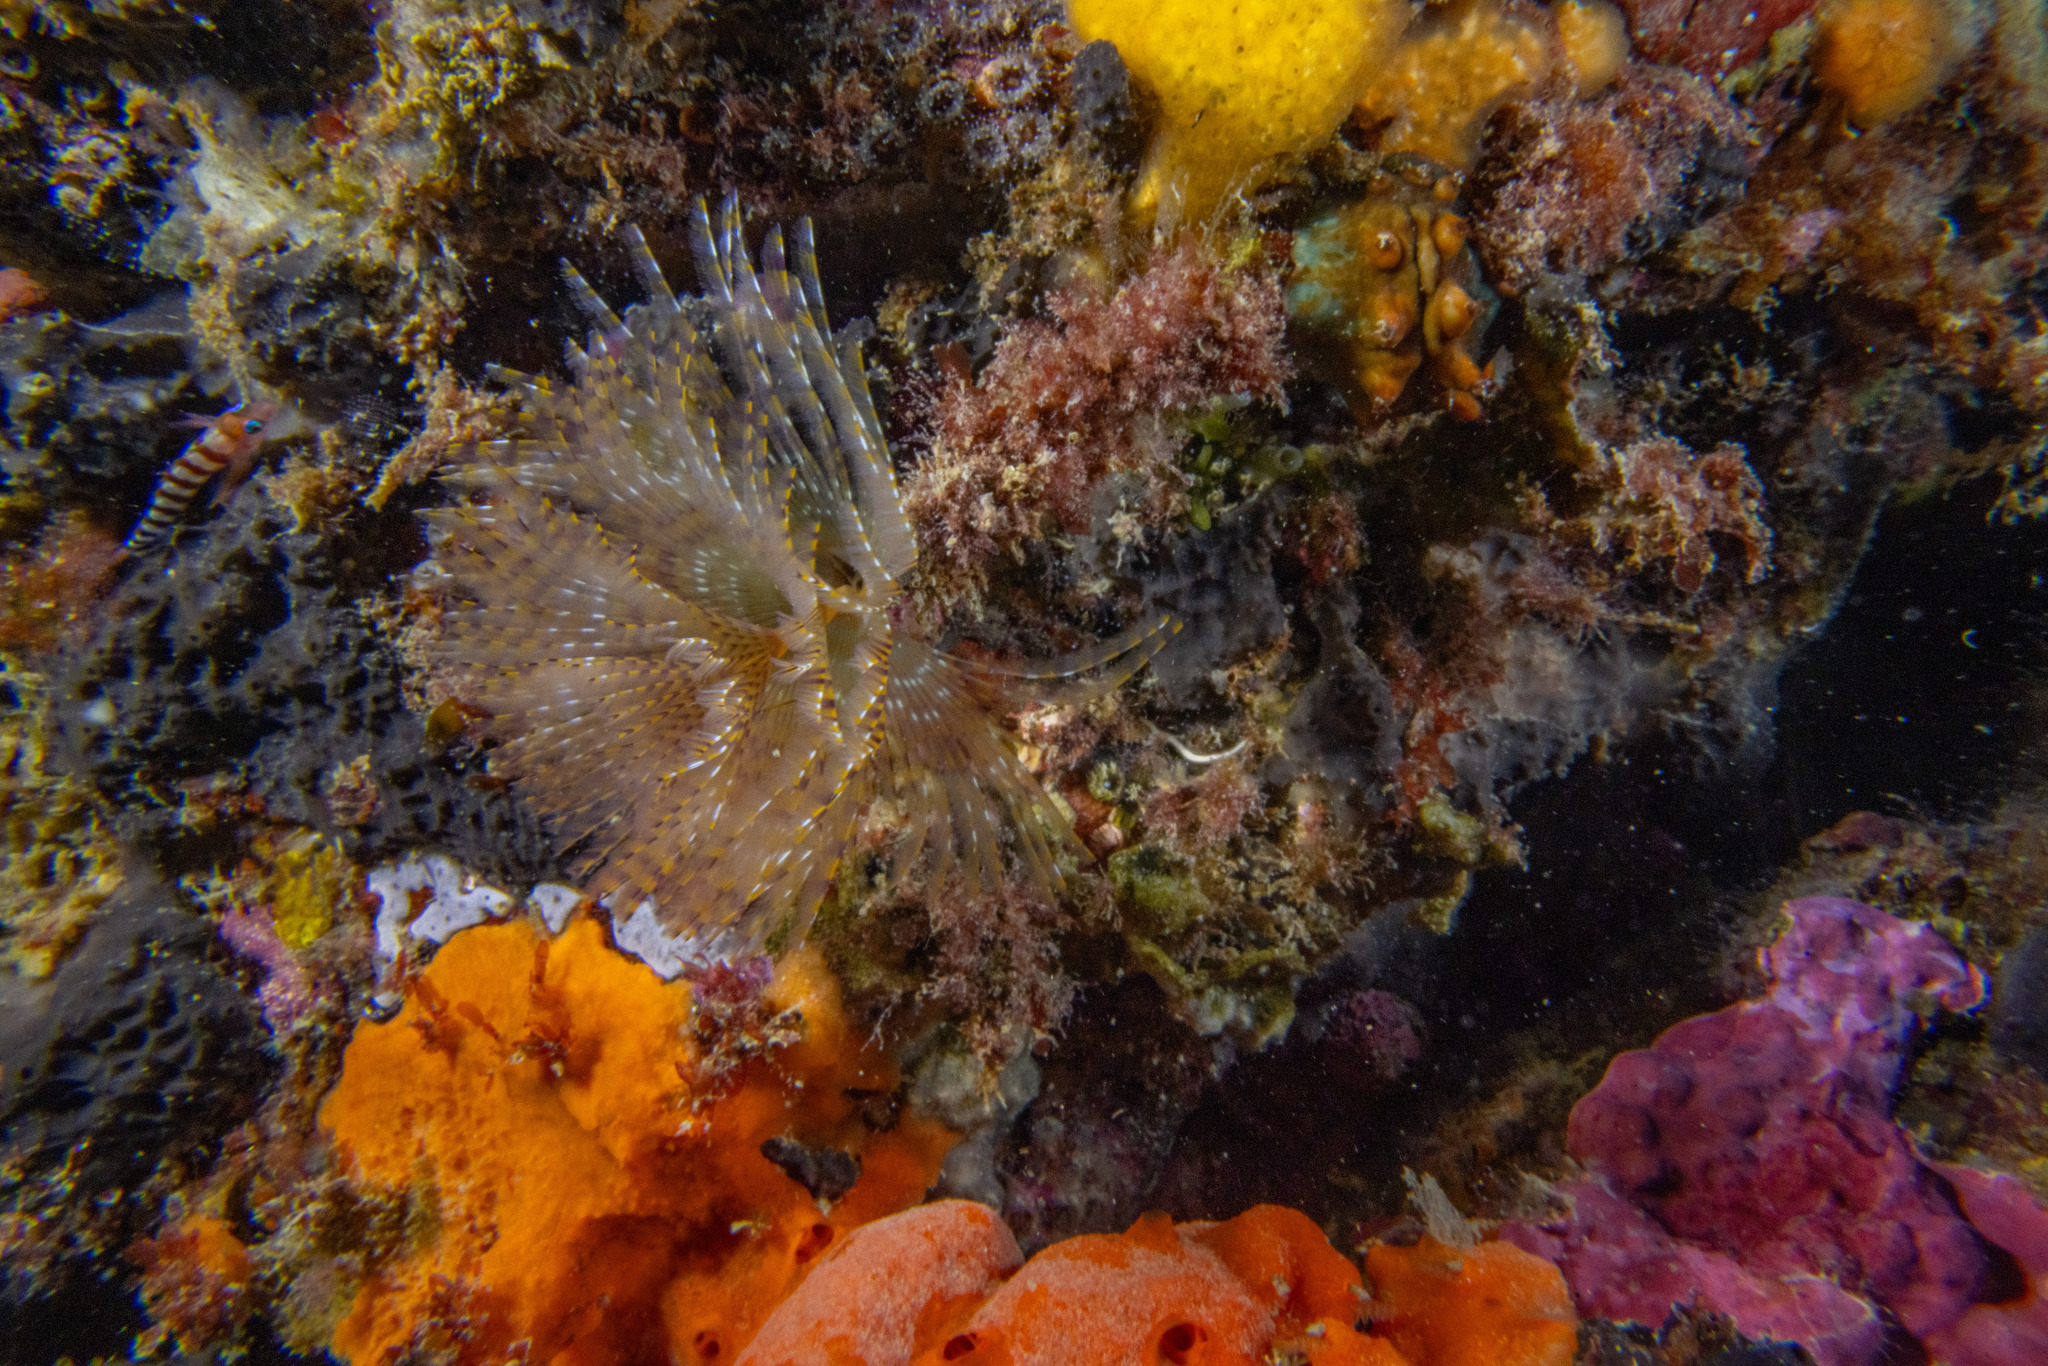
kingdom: Animalia
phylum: Annelida
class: Polychaeta
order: Sabellida
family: Sabellidae
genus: Sabella
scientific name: Sabella spallanzanii
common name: Feather duster worm
